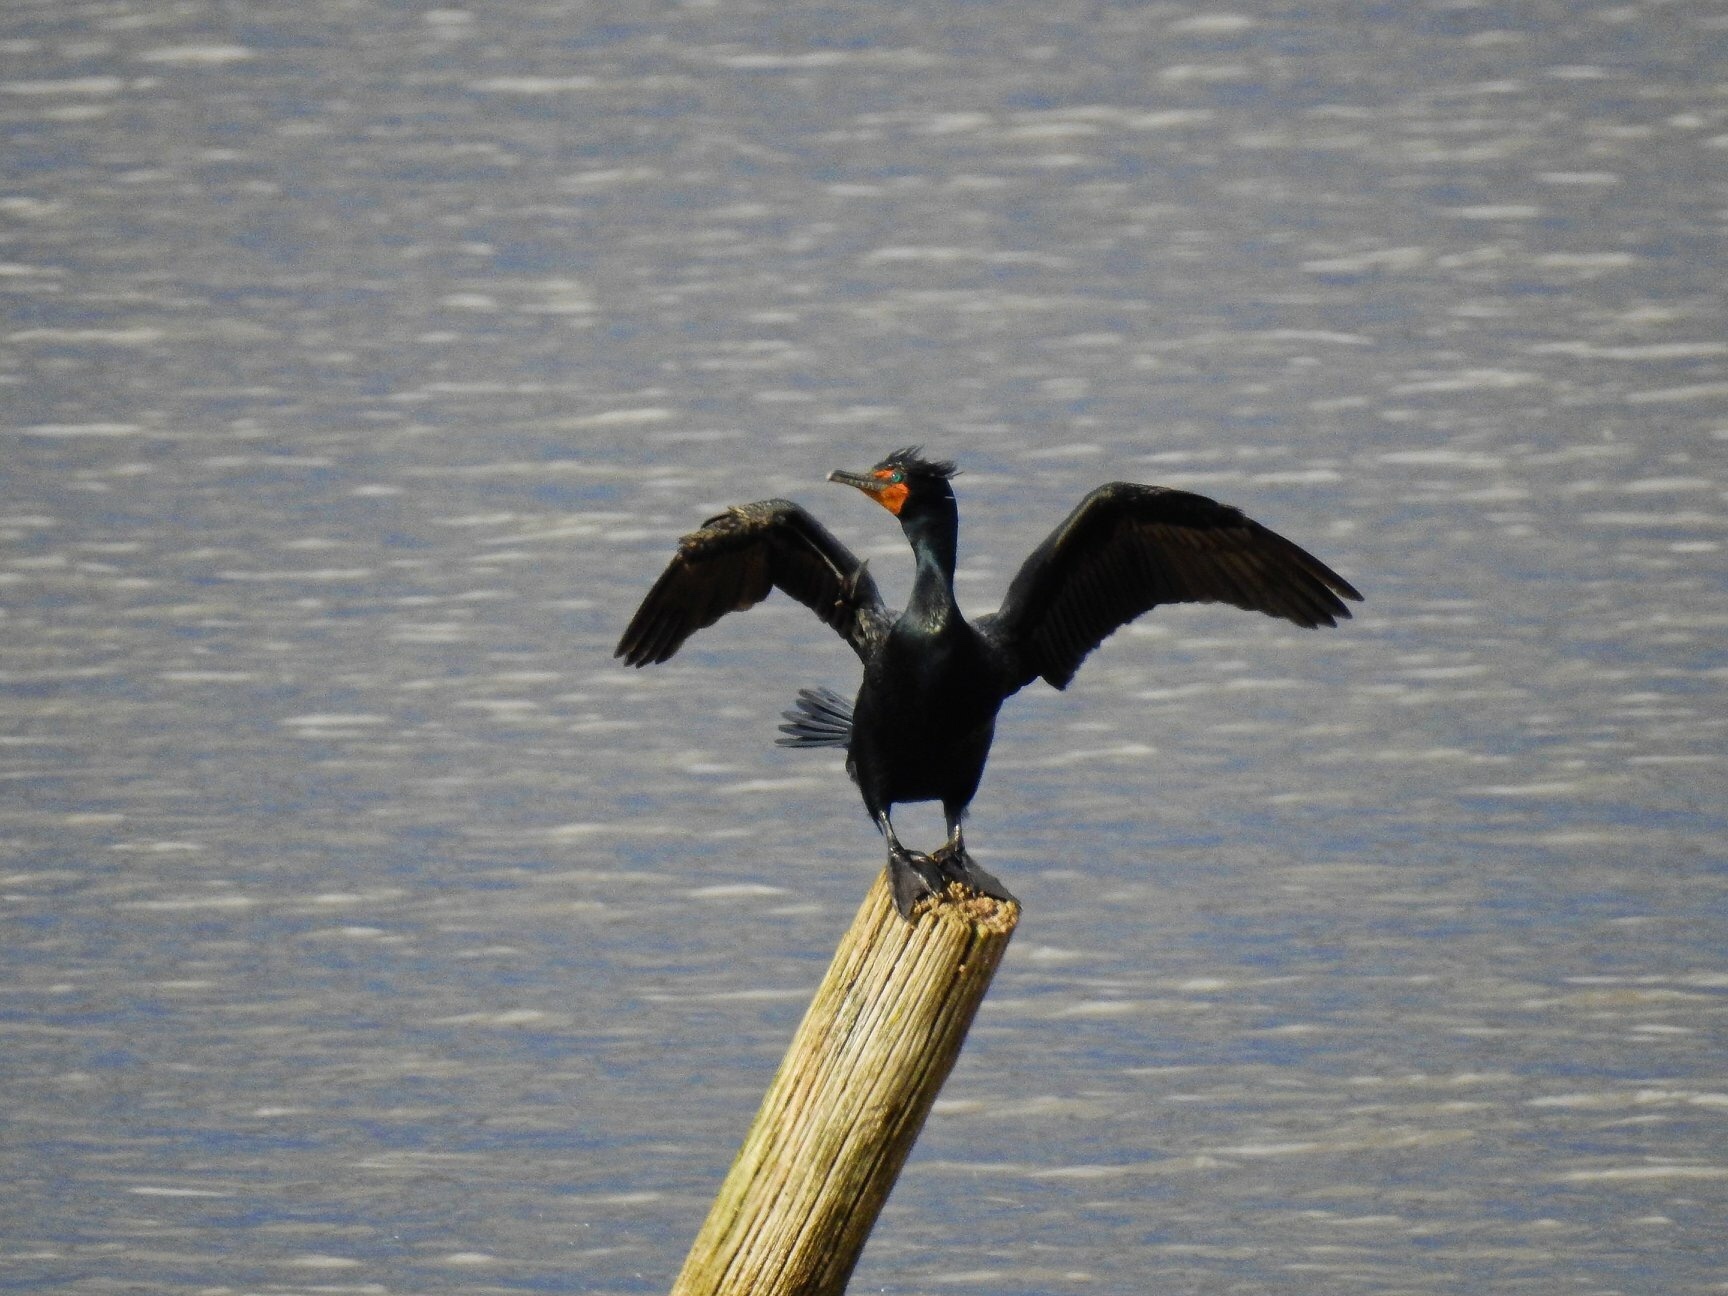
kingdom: Animalia
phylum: Chordata
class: Aves
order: Suliformes
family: Phalacrocoracidae
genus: Phalacrocorax
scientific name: Phalacrocorax auritus
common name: Double-crested cormorant
